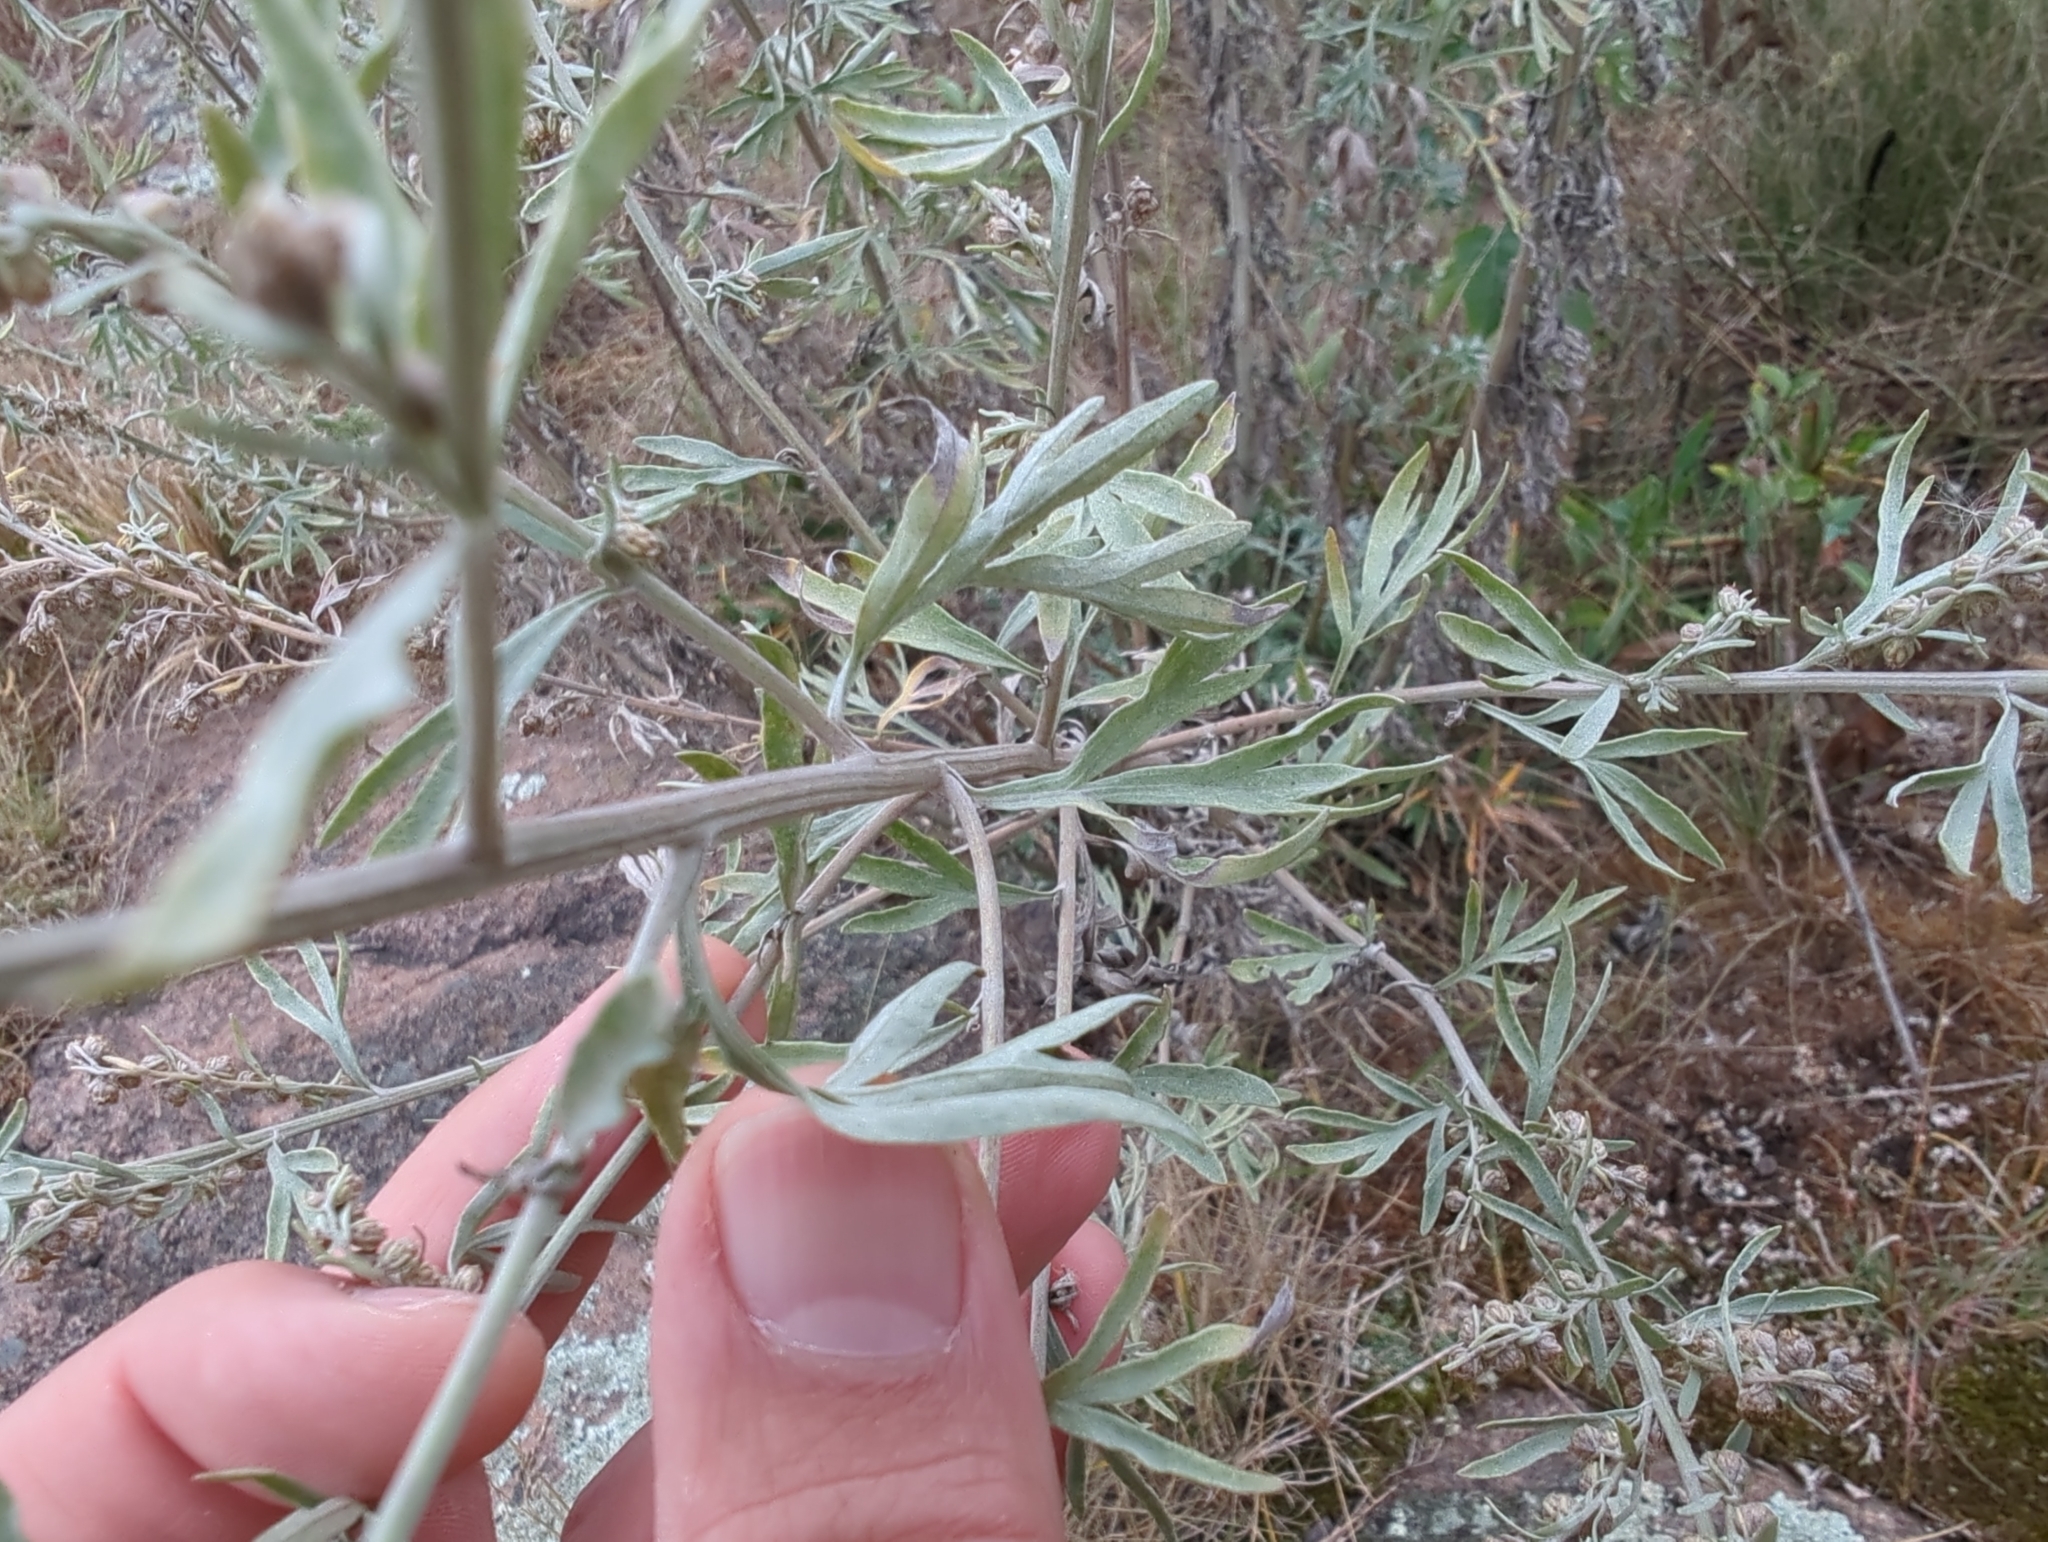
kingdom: Plantae
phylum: Tracheophyta
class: Magnoliopsida
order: Asterales
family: Asteraceae
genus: Artemisia
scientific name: Artemisia absinthium
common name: Wormwood
